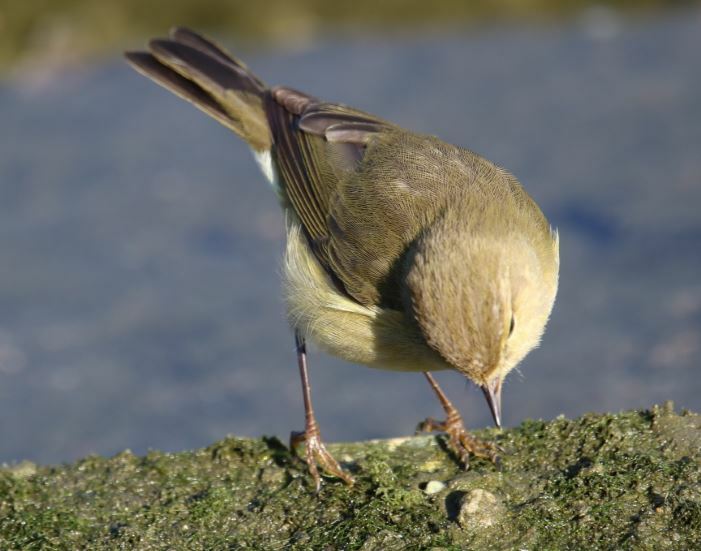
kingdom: Animalia
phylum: Chordata
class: Aves
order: Passeriformes
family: Phylloscopidae
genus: Phylloscopus
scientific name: Phylloscopus collybita
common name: Common chiffchaff
